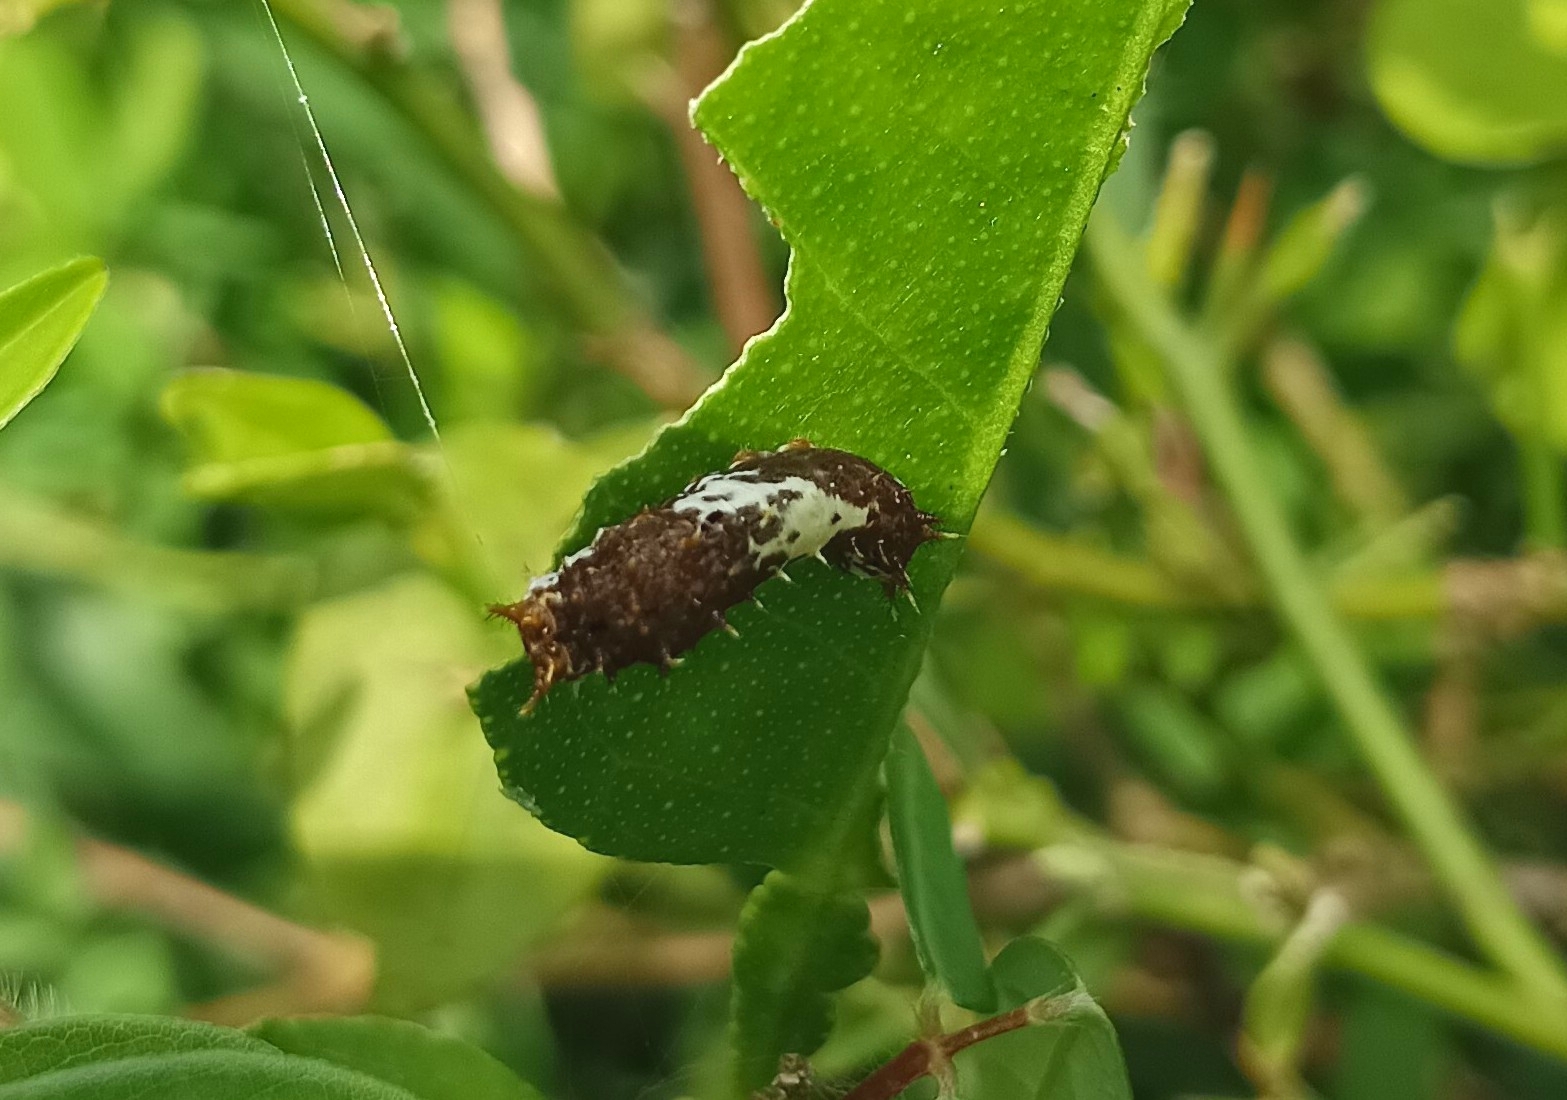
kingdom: Animalia
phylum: Arthropoda
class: Insecta
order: Lepidoptera
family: Papilionidae
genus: Papilio
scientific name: Papilio demoleus
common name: Lime butterfly
